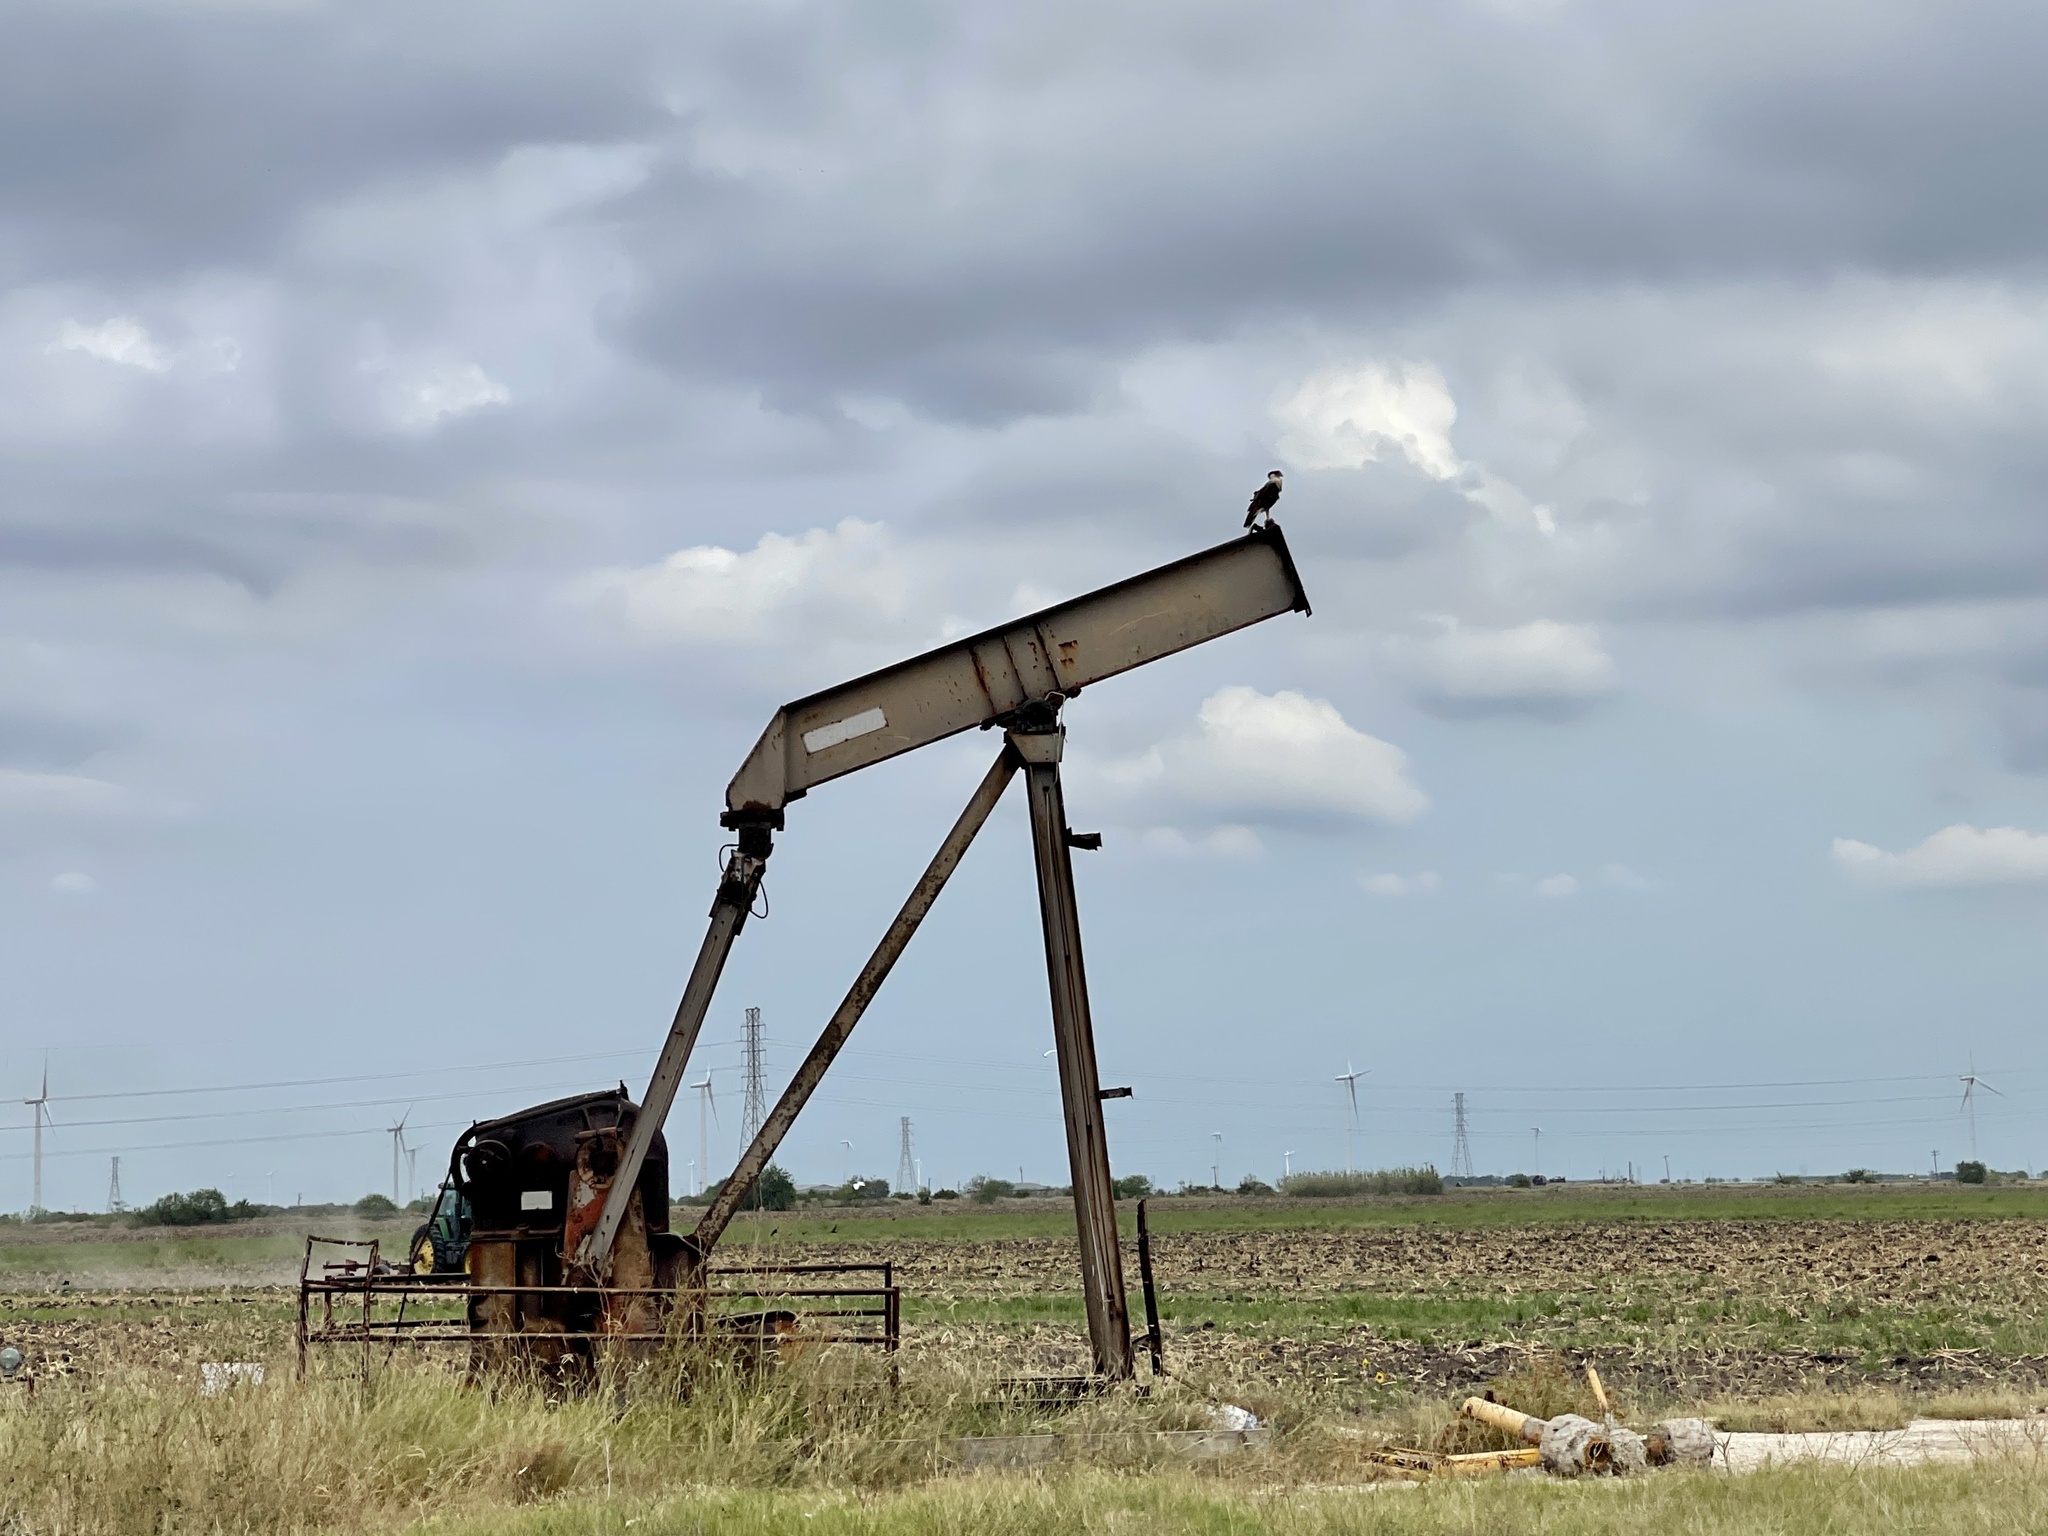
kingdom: Animalia
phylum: Chordata
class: Aves
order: Falconiformes
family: Falconidae
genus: Caracara
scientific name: Caracara plancus
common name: Southern caracara
